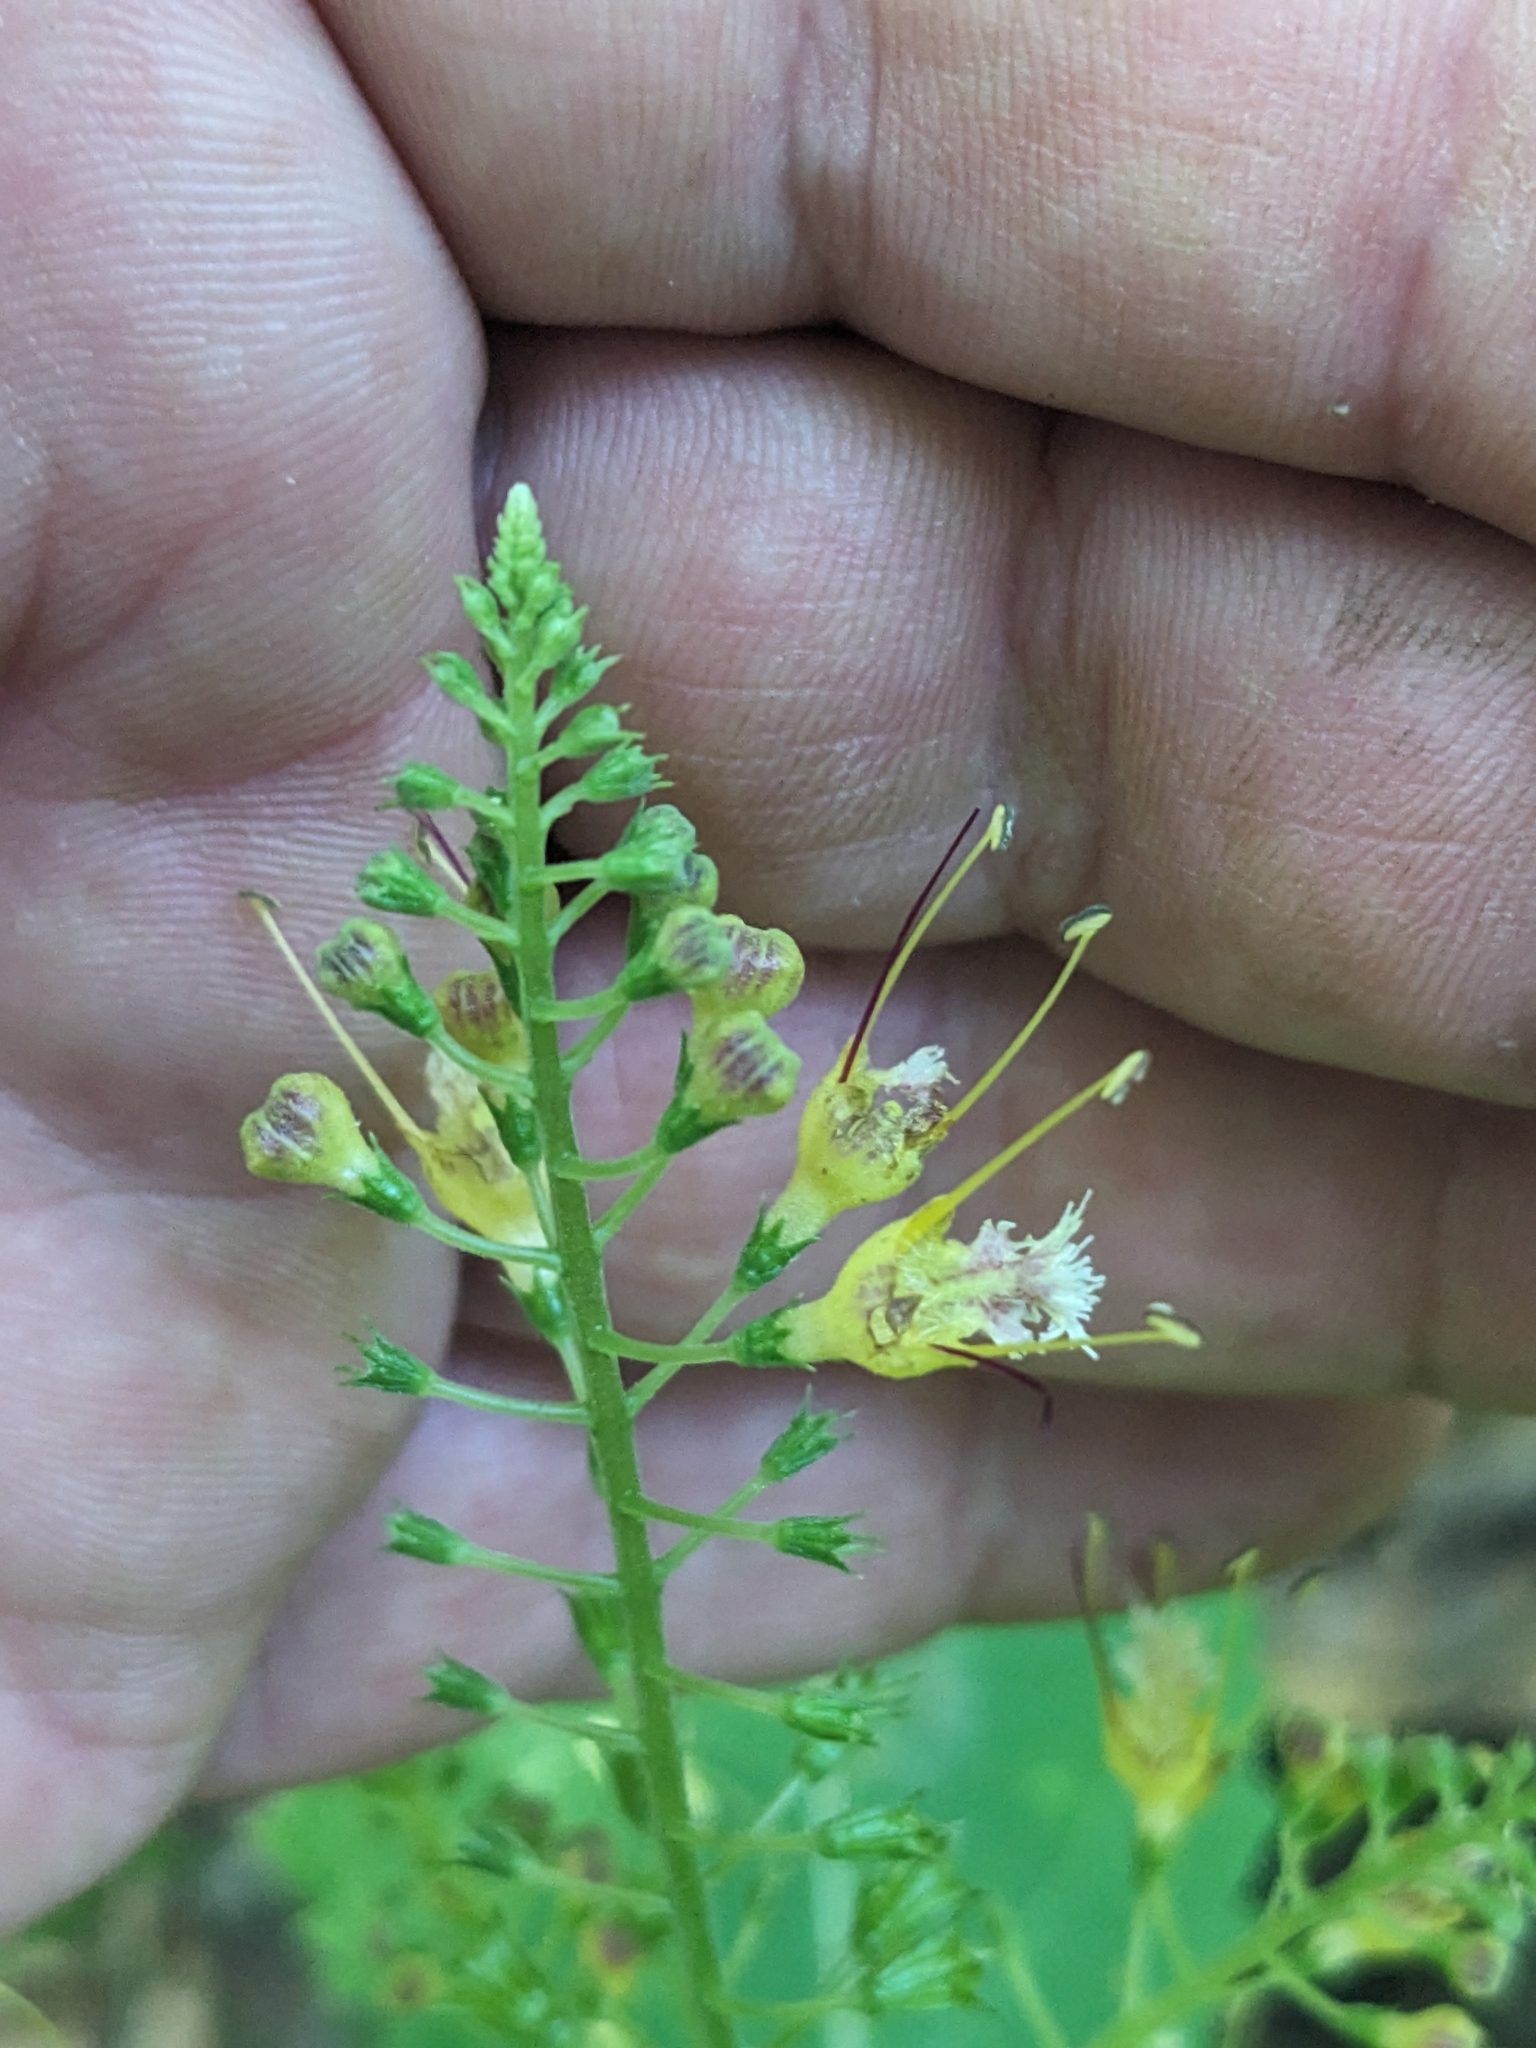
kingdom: Plantae
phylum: Tracheophyta
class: Magnoliopsida
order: Lamiales
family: Lamiaceae
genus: Collinsonia
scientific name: Collinsonia canadensis
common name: Northern horsebalm
